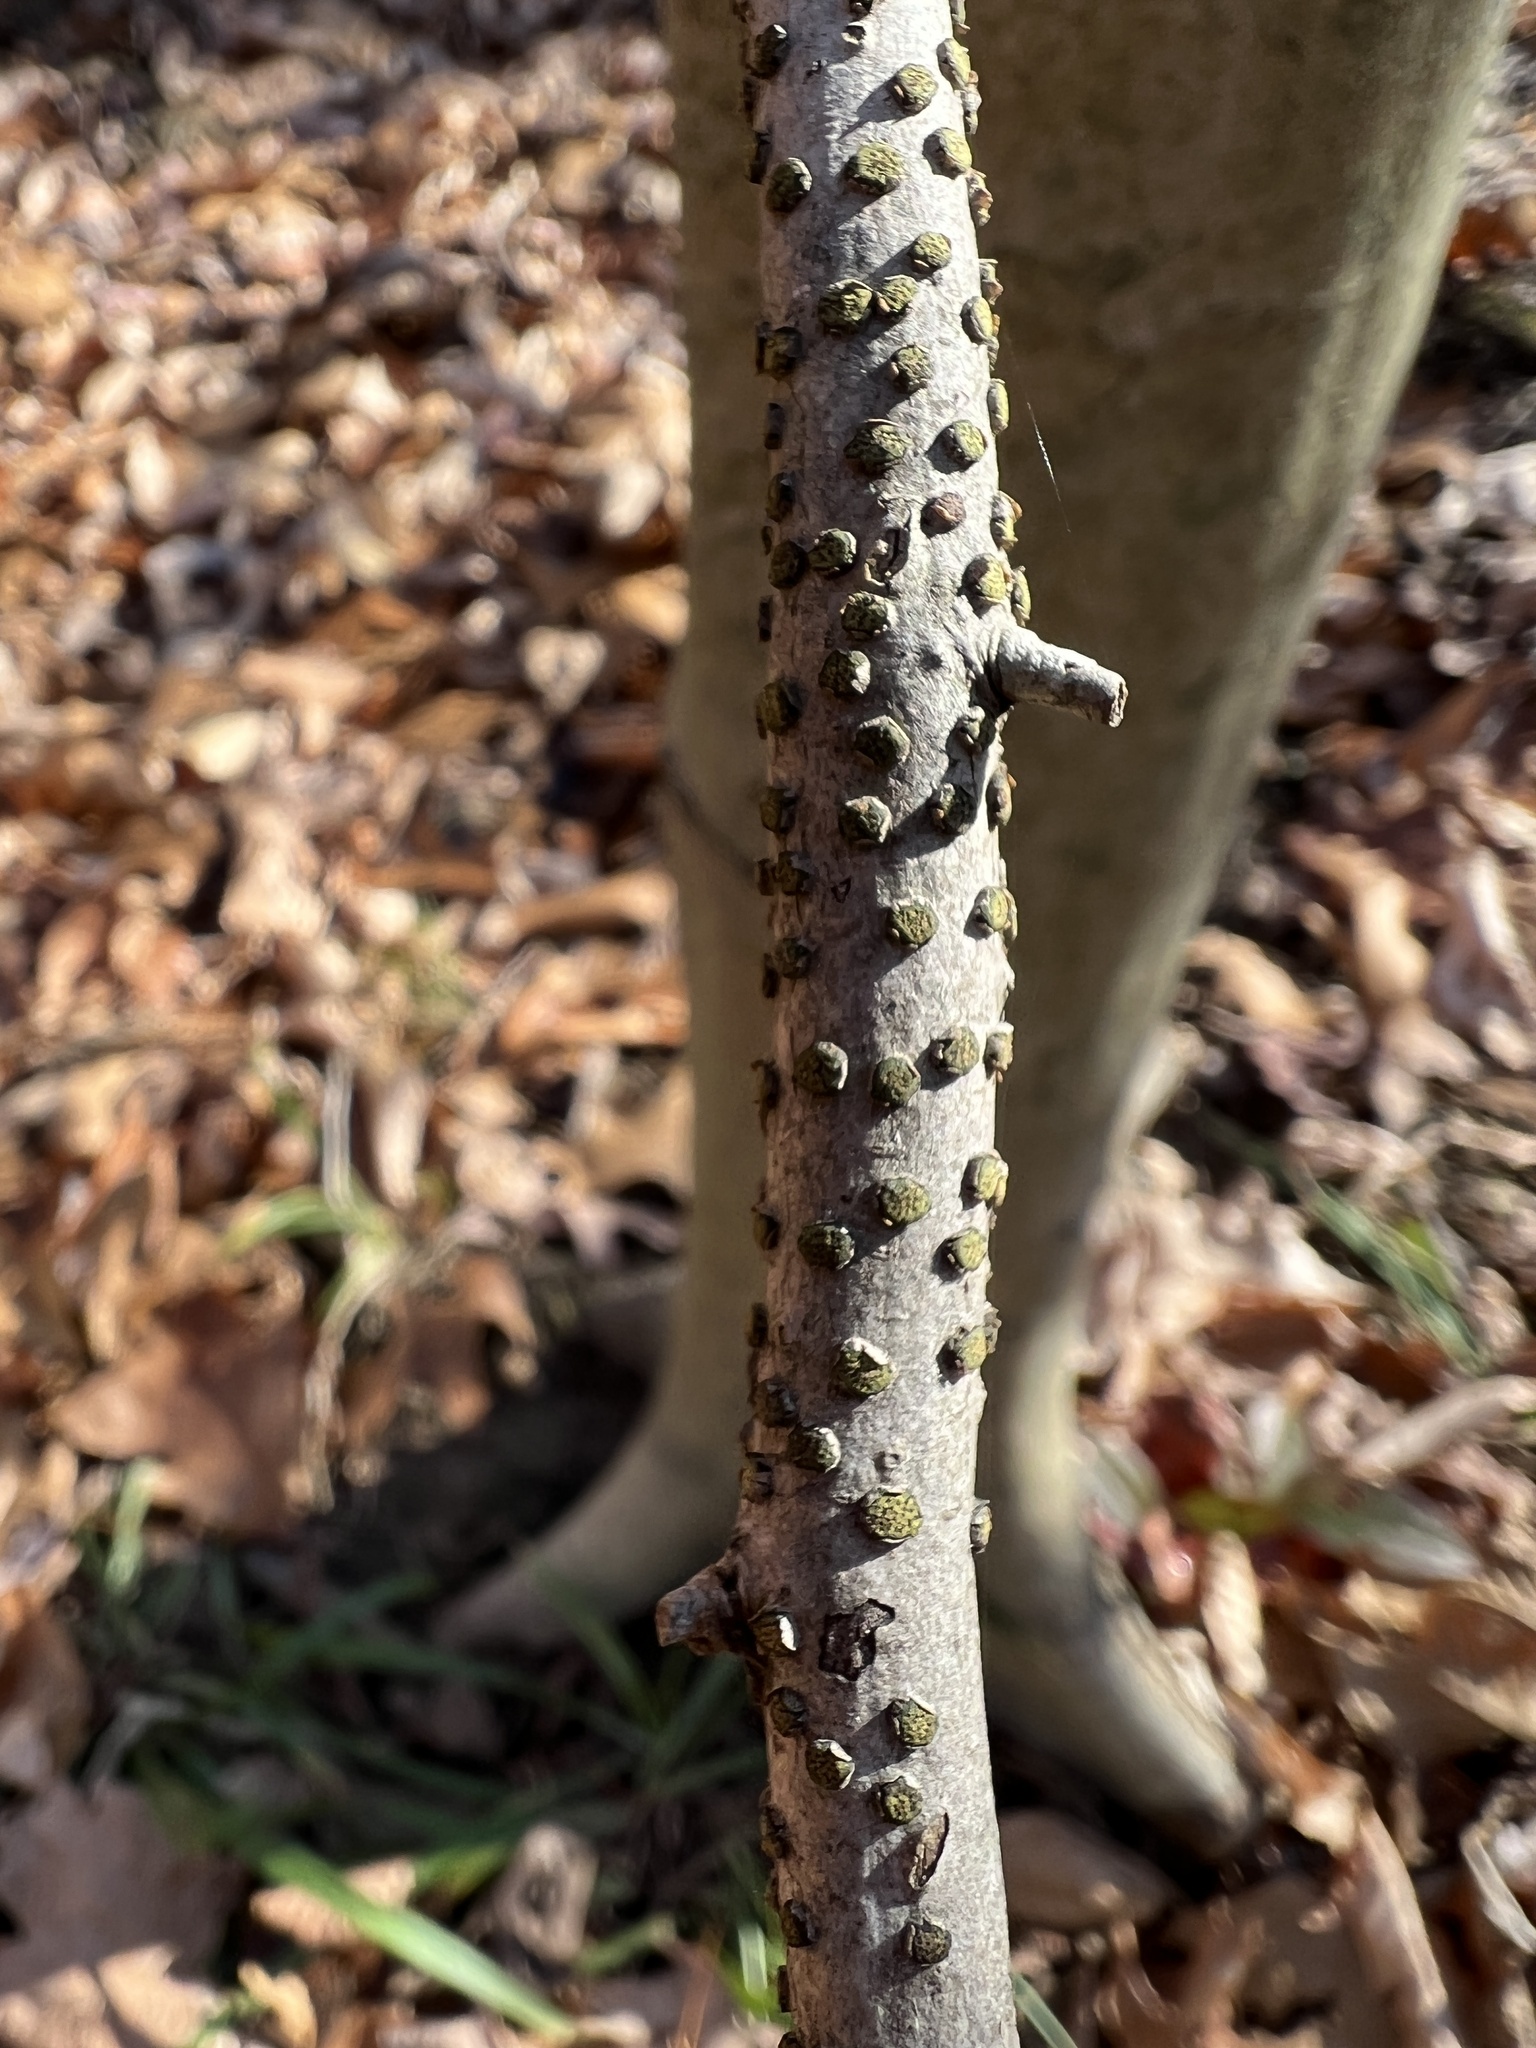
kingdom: Fungi
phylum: Ascomycota
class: Sordariomycetes
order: Xylariales
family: Diatrypaceae
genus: Diatrype
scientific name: Diatrype virescens
